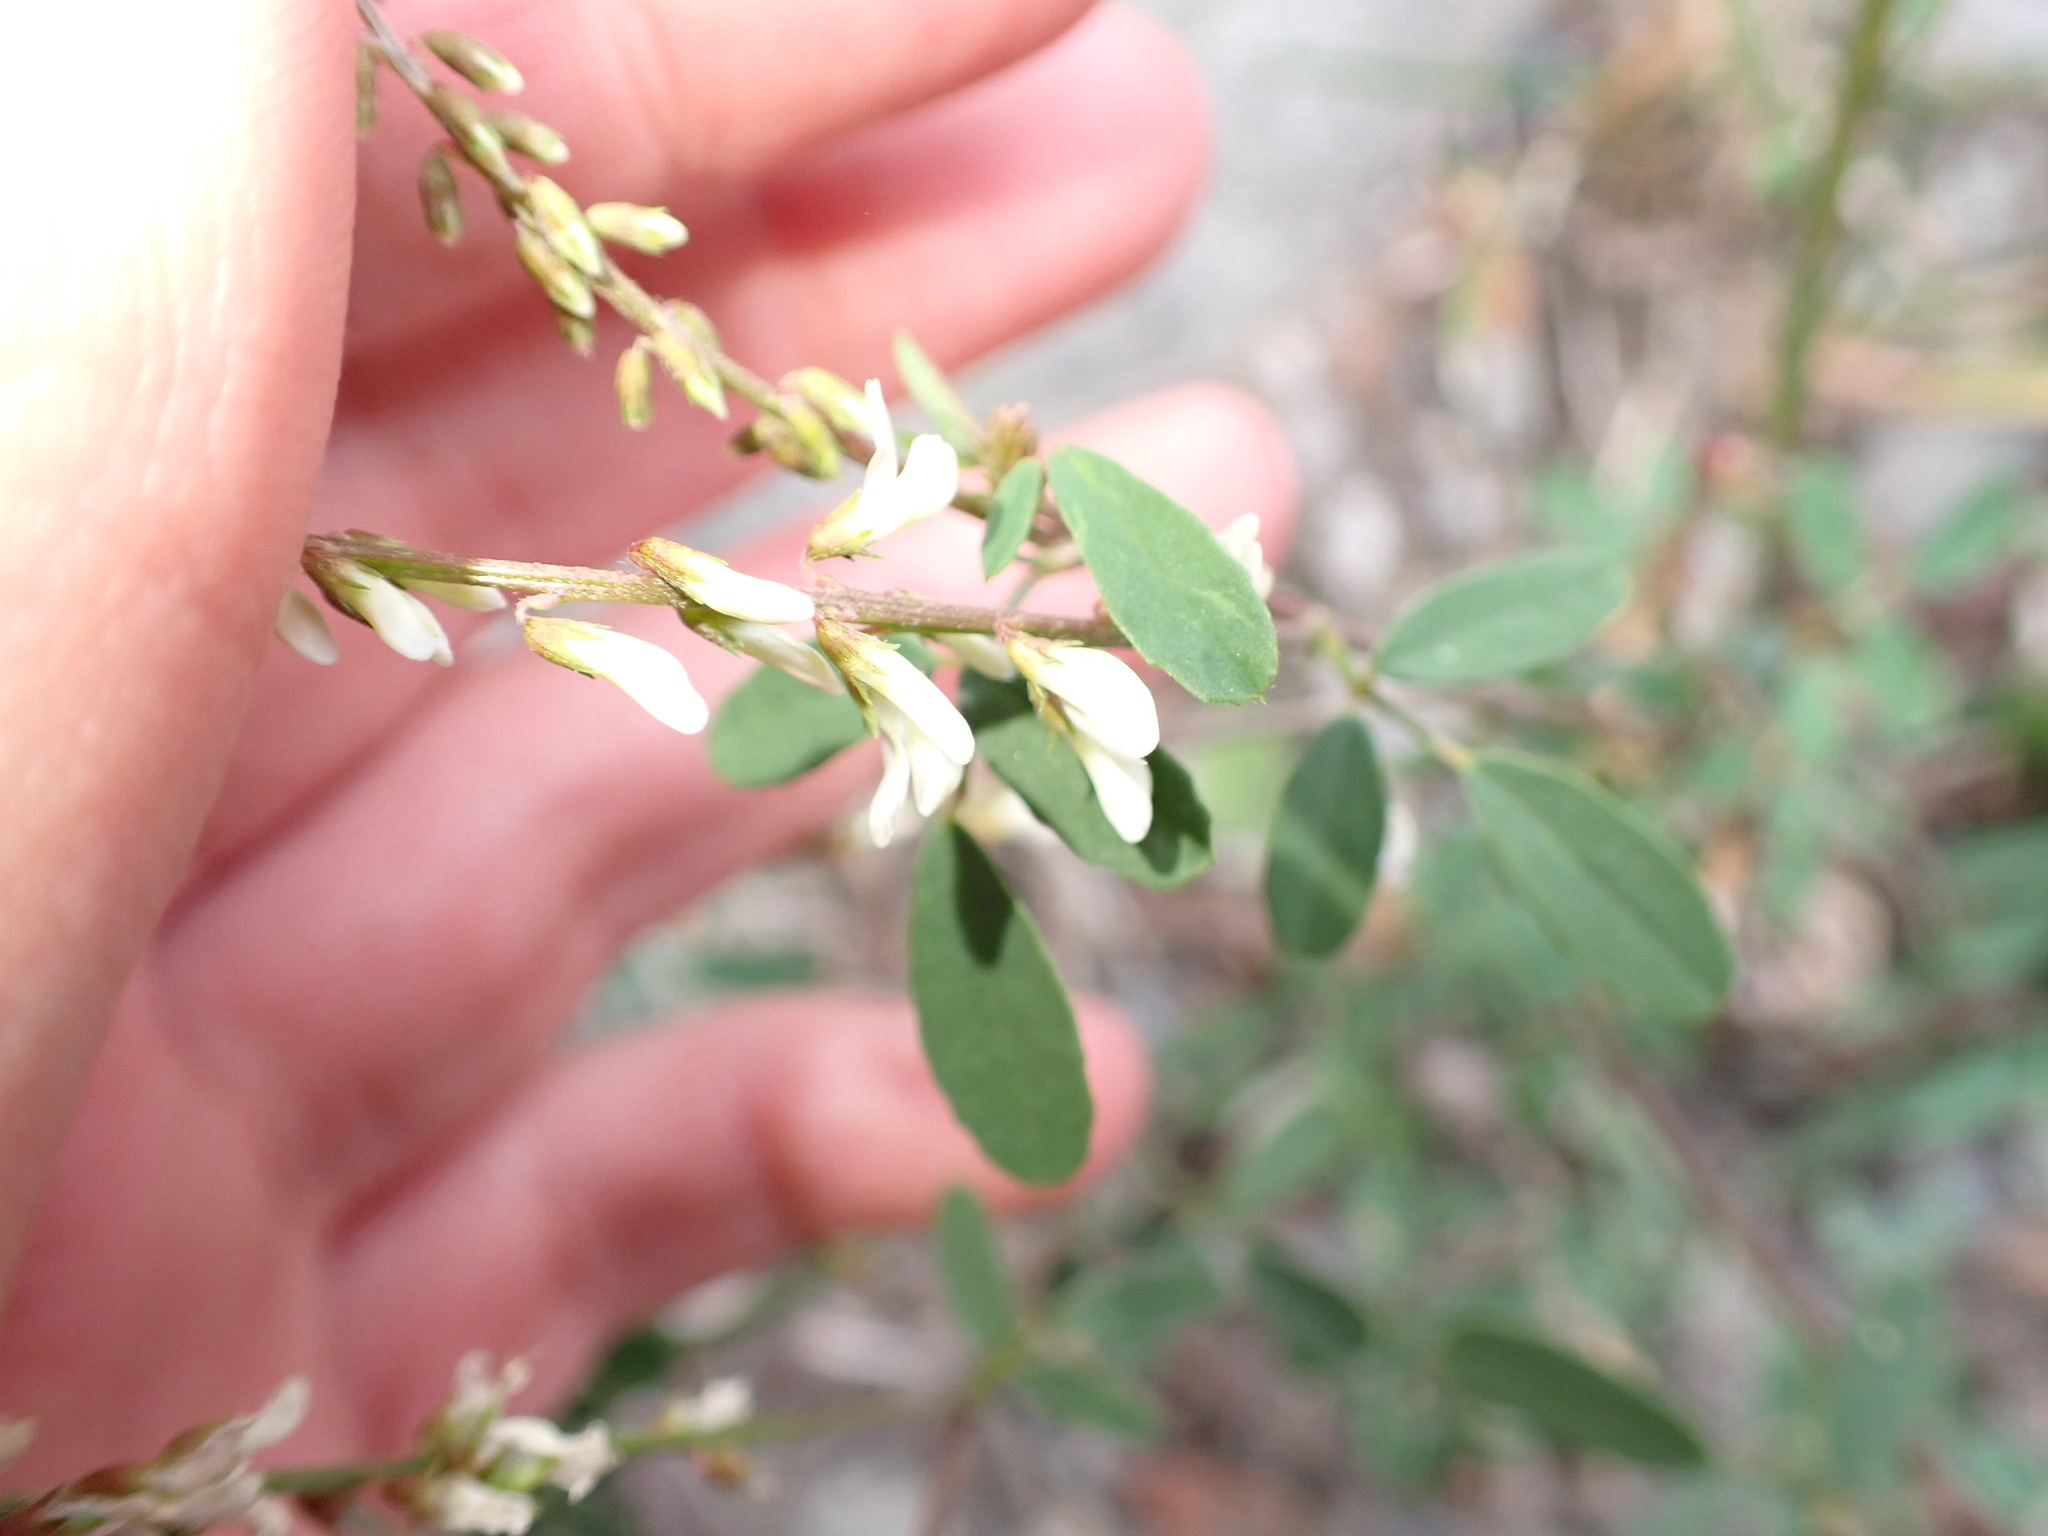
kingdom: Plantae
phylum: Tracheophyta
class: Magnoliopsida
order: Fabales
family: Fabaceae
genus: Melilotus
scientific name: Melilotus albus
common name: White melilot
